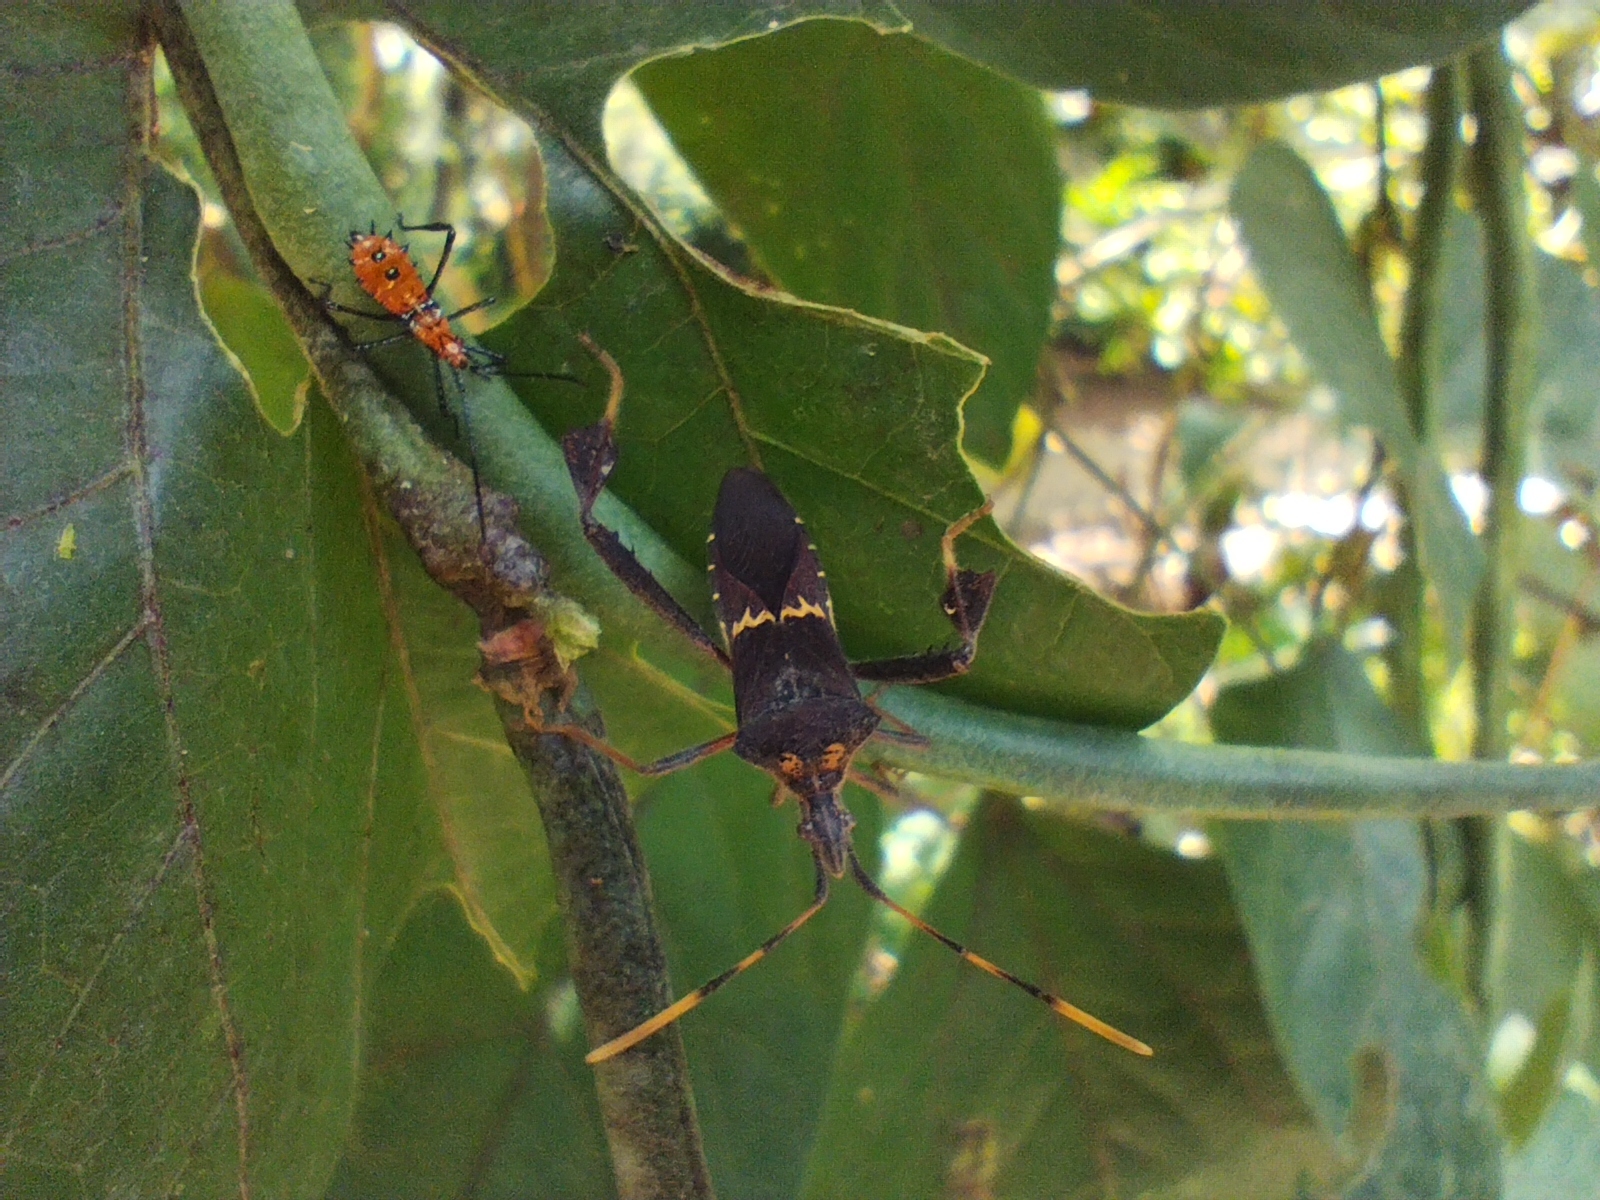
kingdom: Animalia
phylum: Arthropoda
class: Insecta
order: Hemiptera
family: Coreidae
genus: Leptoglossus
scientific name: Leptoglossus zonatus
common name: Large-legged bug
